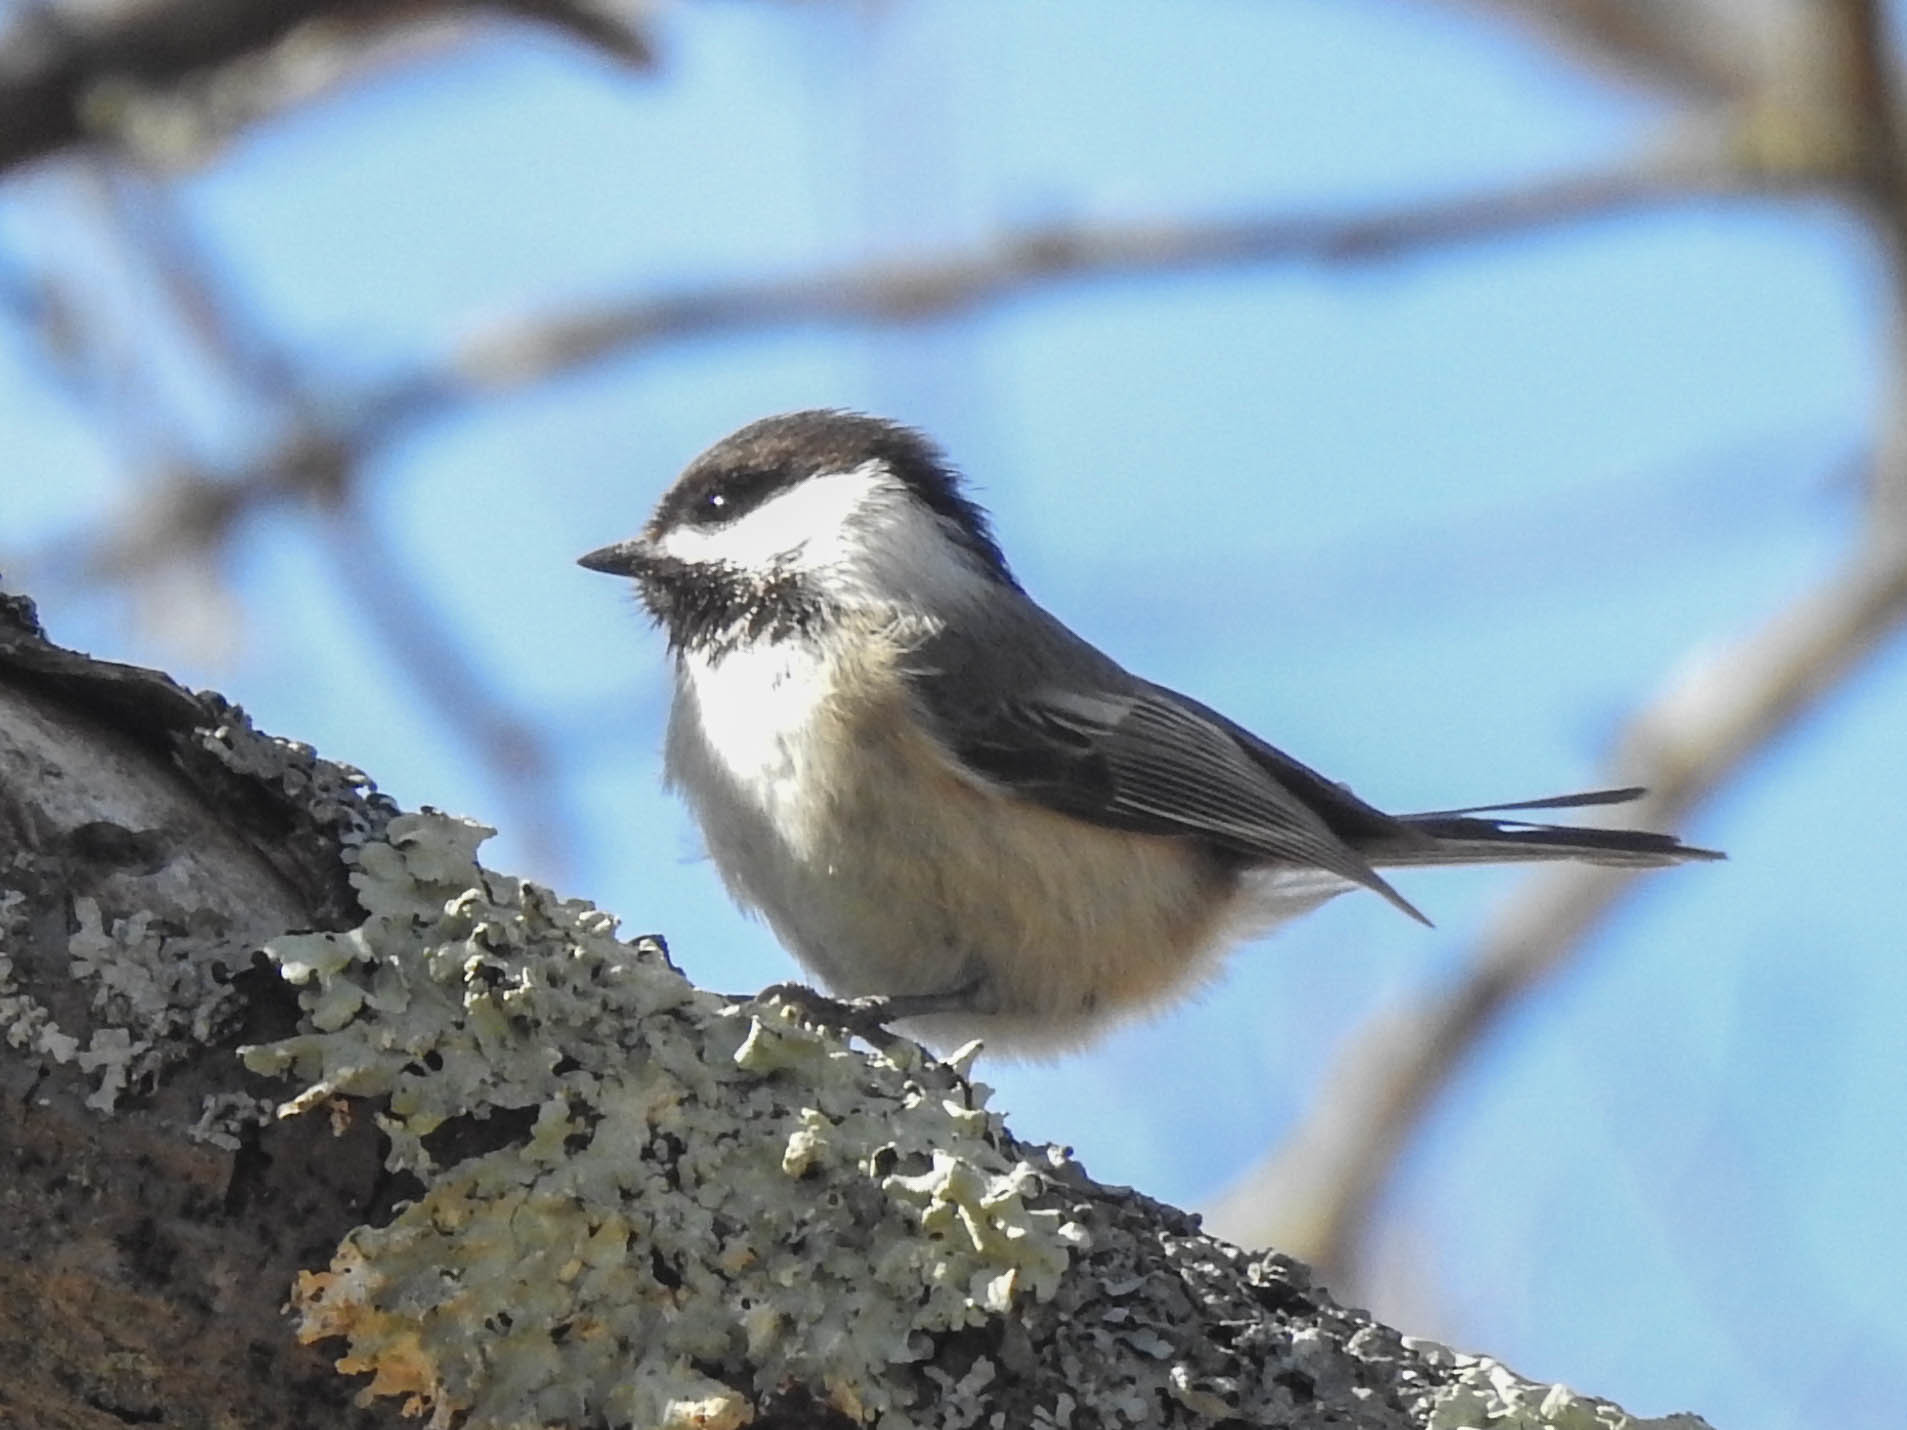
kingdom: Animalia
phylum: Chordata
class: Aves
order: Passeriformes
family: Paridae
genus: Poecile
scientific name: Poecile atricapillus
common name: Black-capped chickadee
